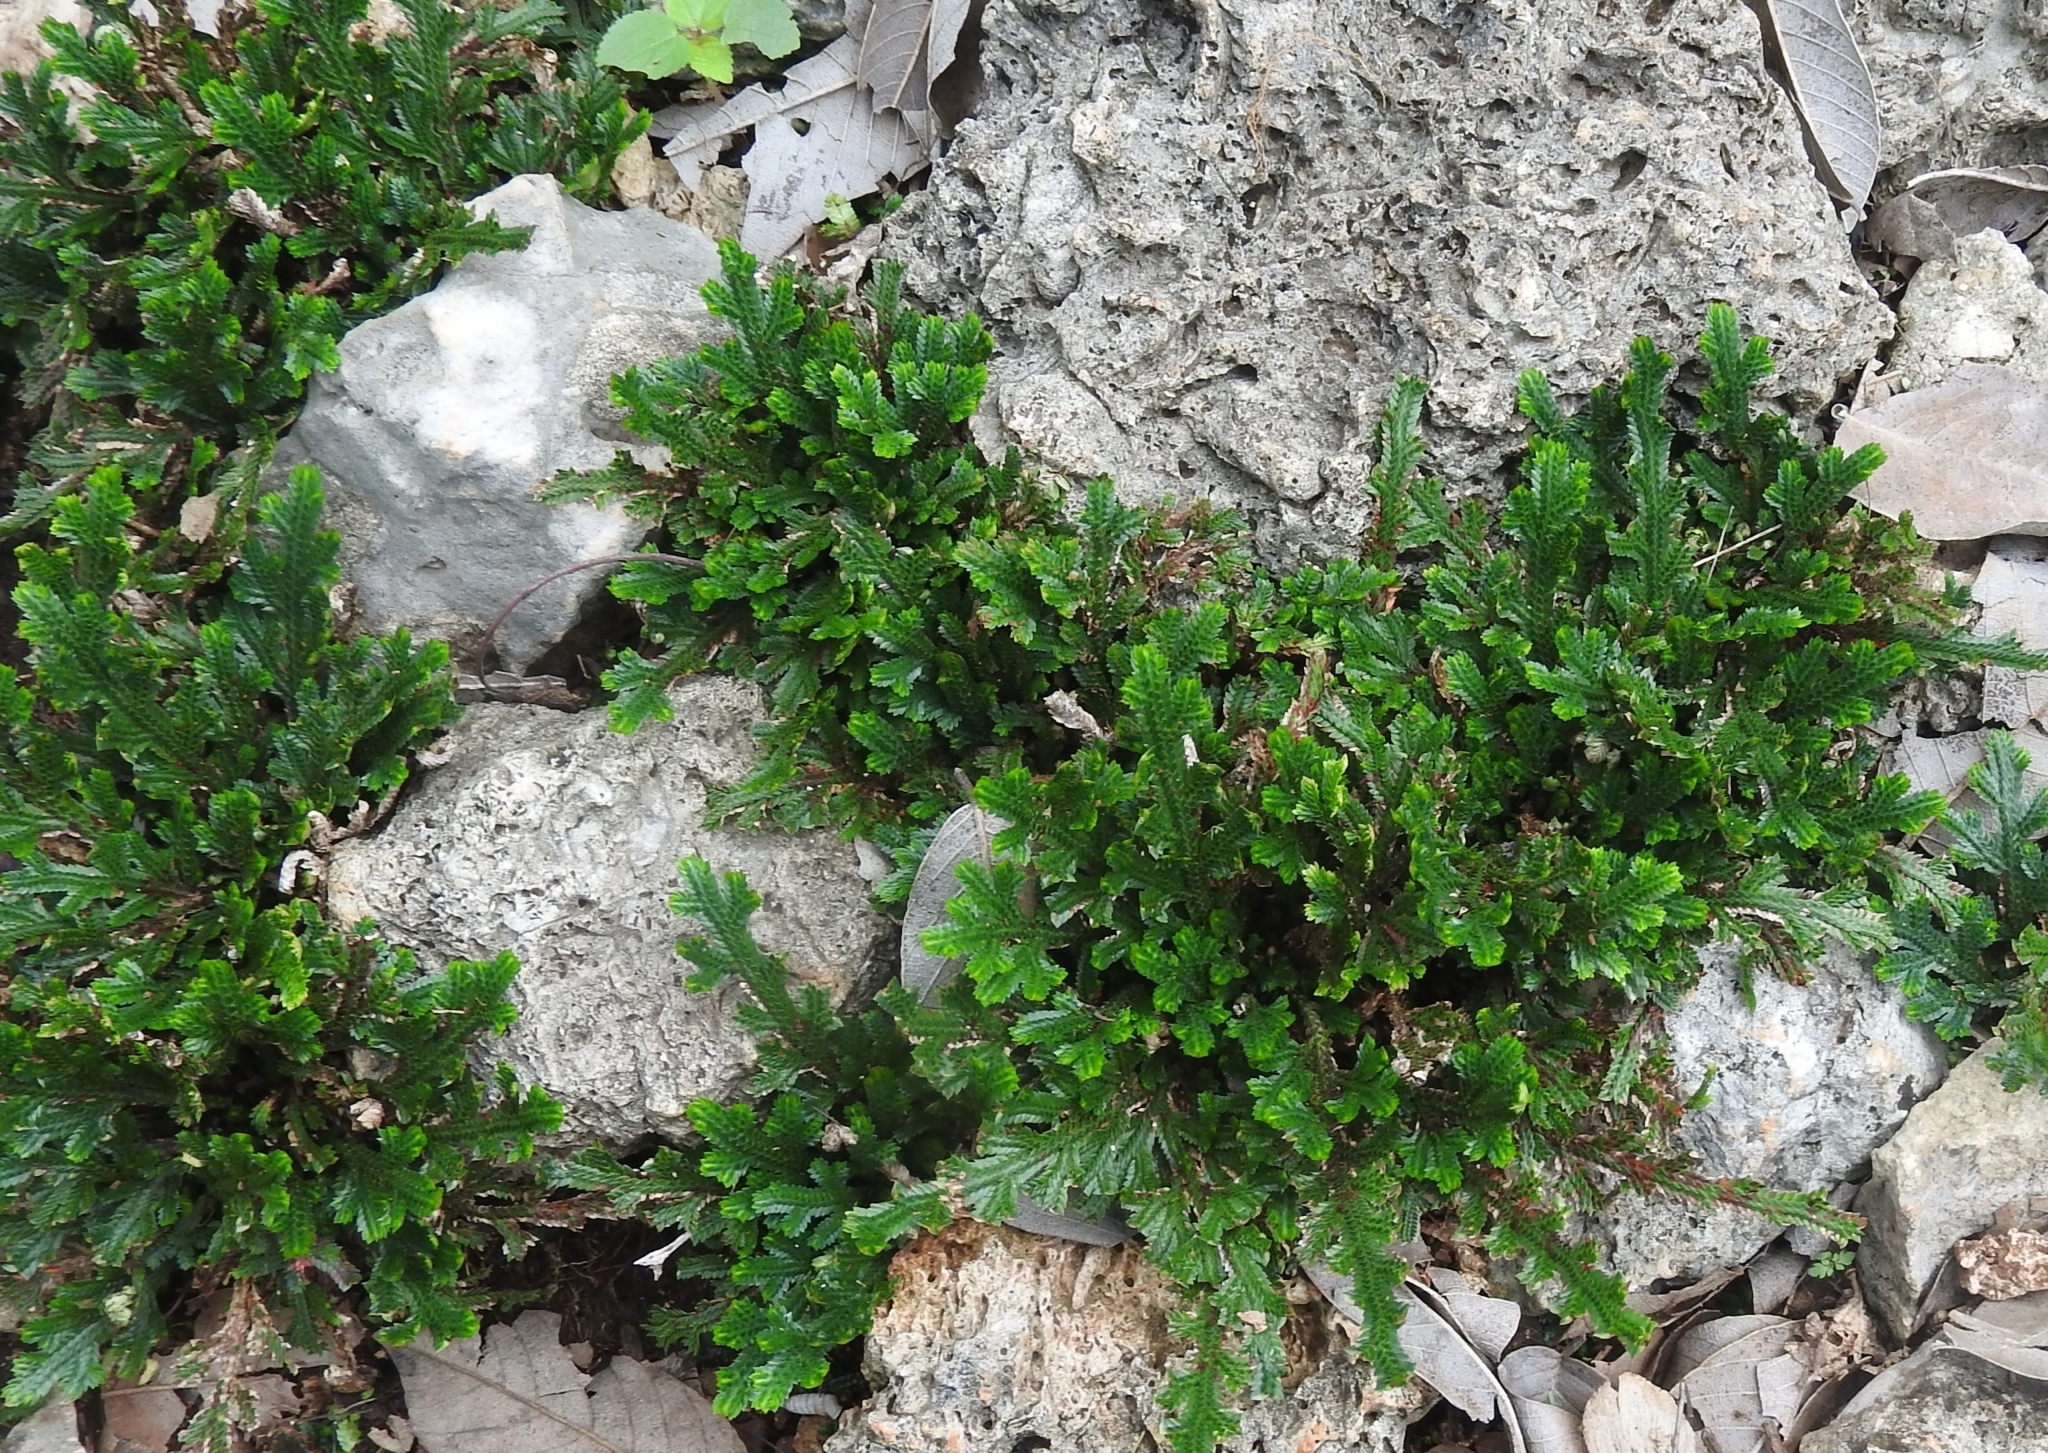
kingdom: Plantae
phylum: Tracheophyta
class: Lycopodiopsida
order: Selaginellales
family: Selaginellaceae
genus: Selaginella
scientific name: Selaginella convoluta
